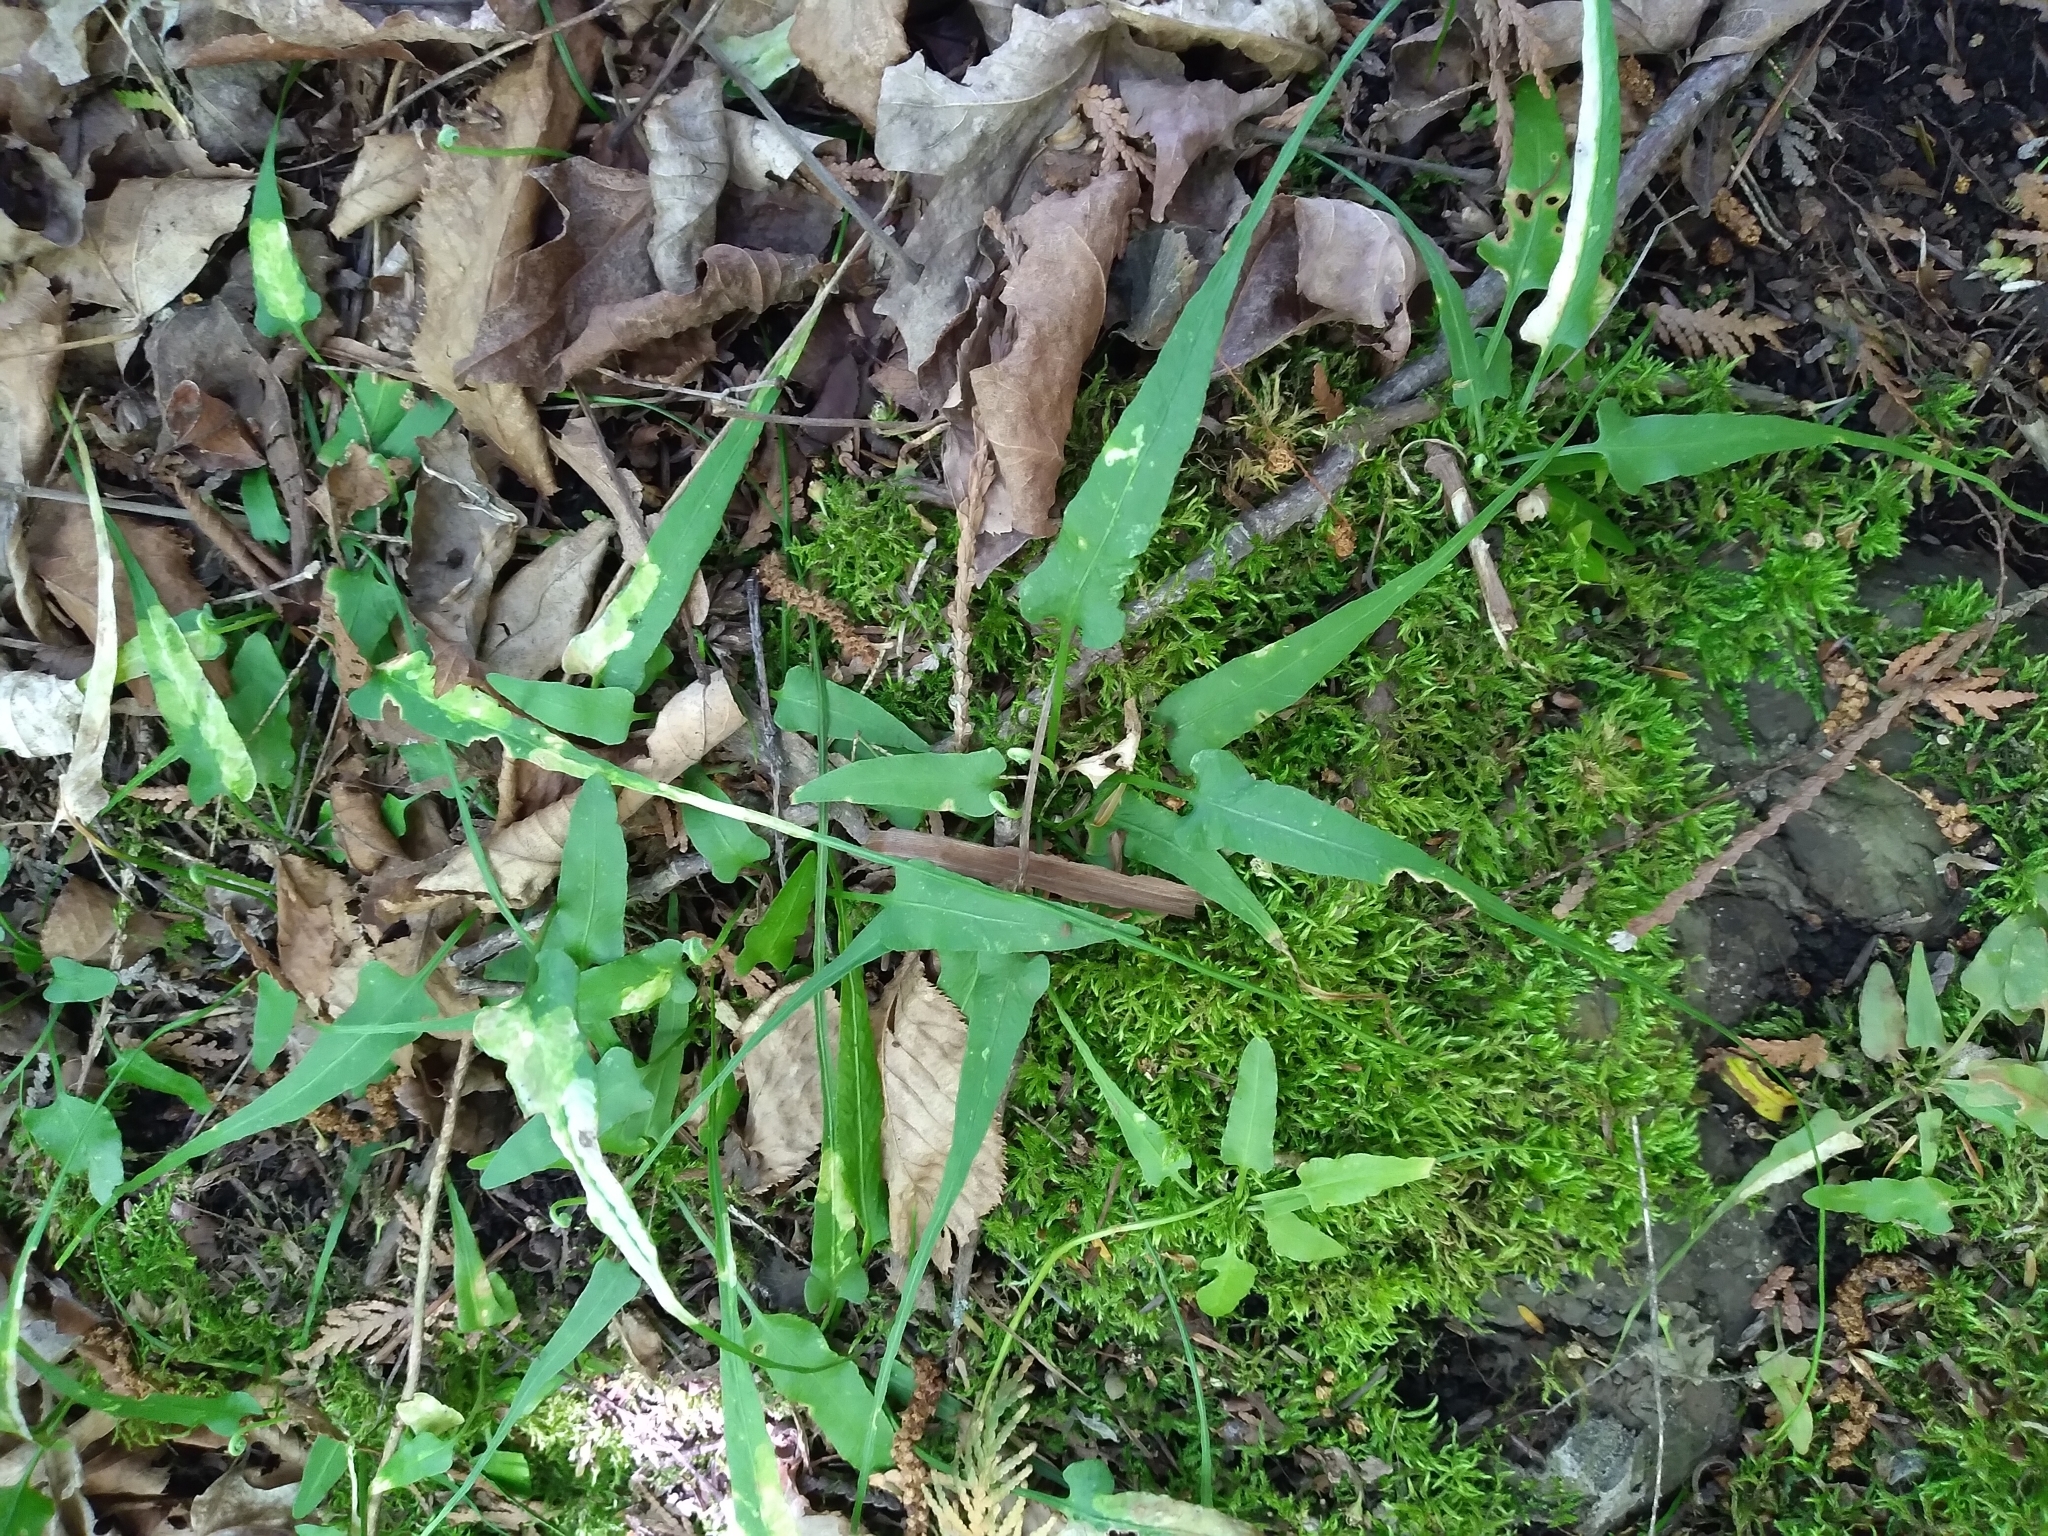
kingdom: Plantae
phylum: Tracheophyta
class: Polypodiopsida
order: Polypodiales
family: Aspleniaceae
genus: Asplenium
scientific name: Asplenium rhizophyllum
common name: Walking fern
